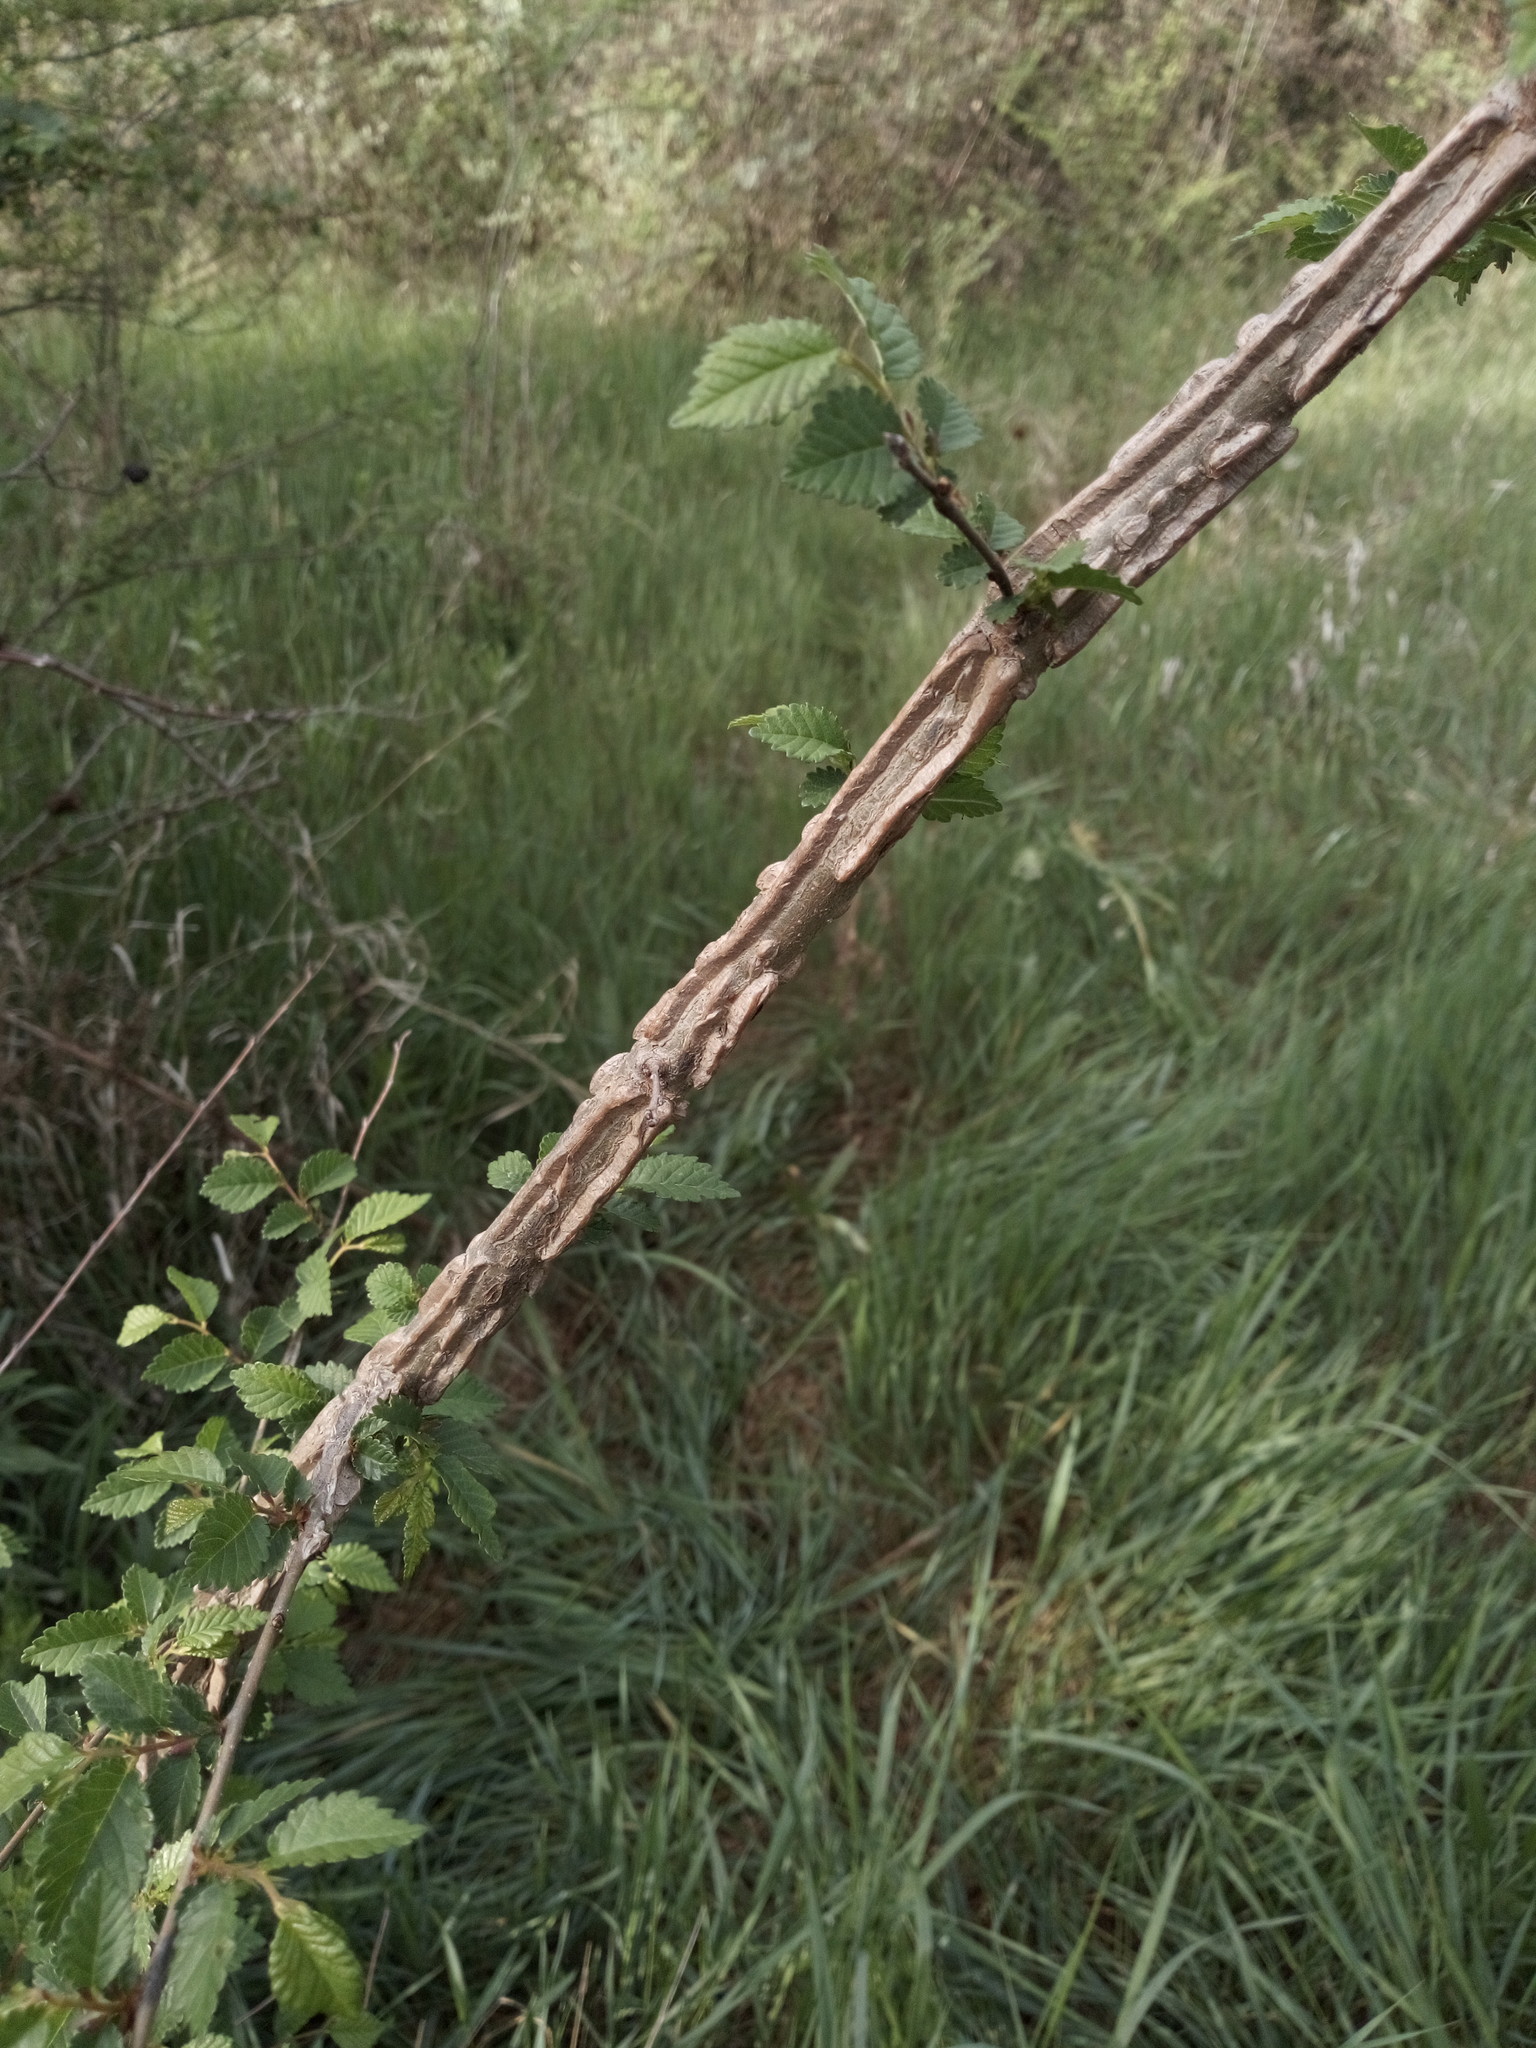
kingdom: Plantae
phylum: Tracheophyta
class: Magnoliopsida
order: Rosales
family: Ulmaceae
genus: Ulmus
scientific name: Ulmus minor
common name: Small-leaved elm
